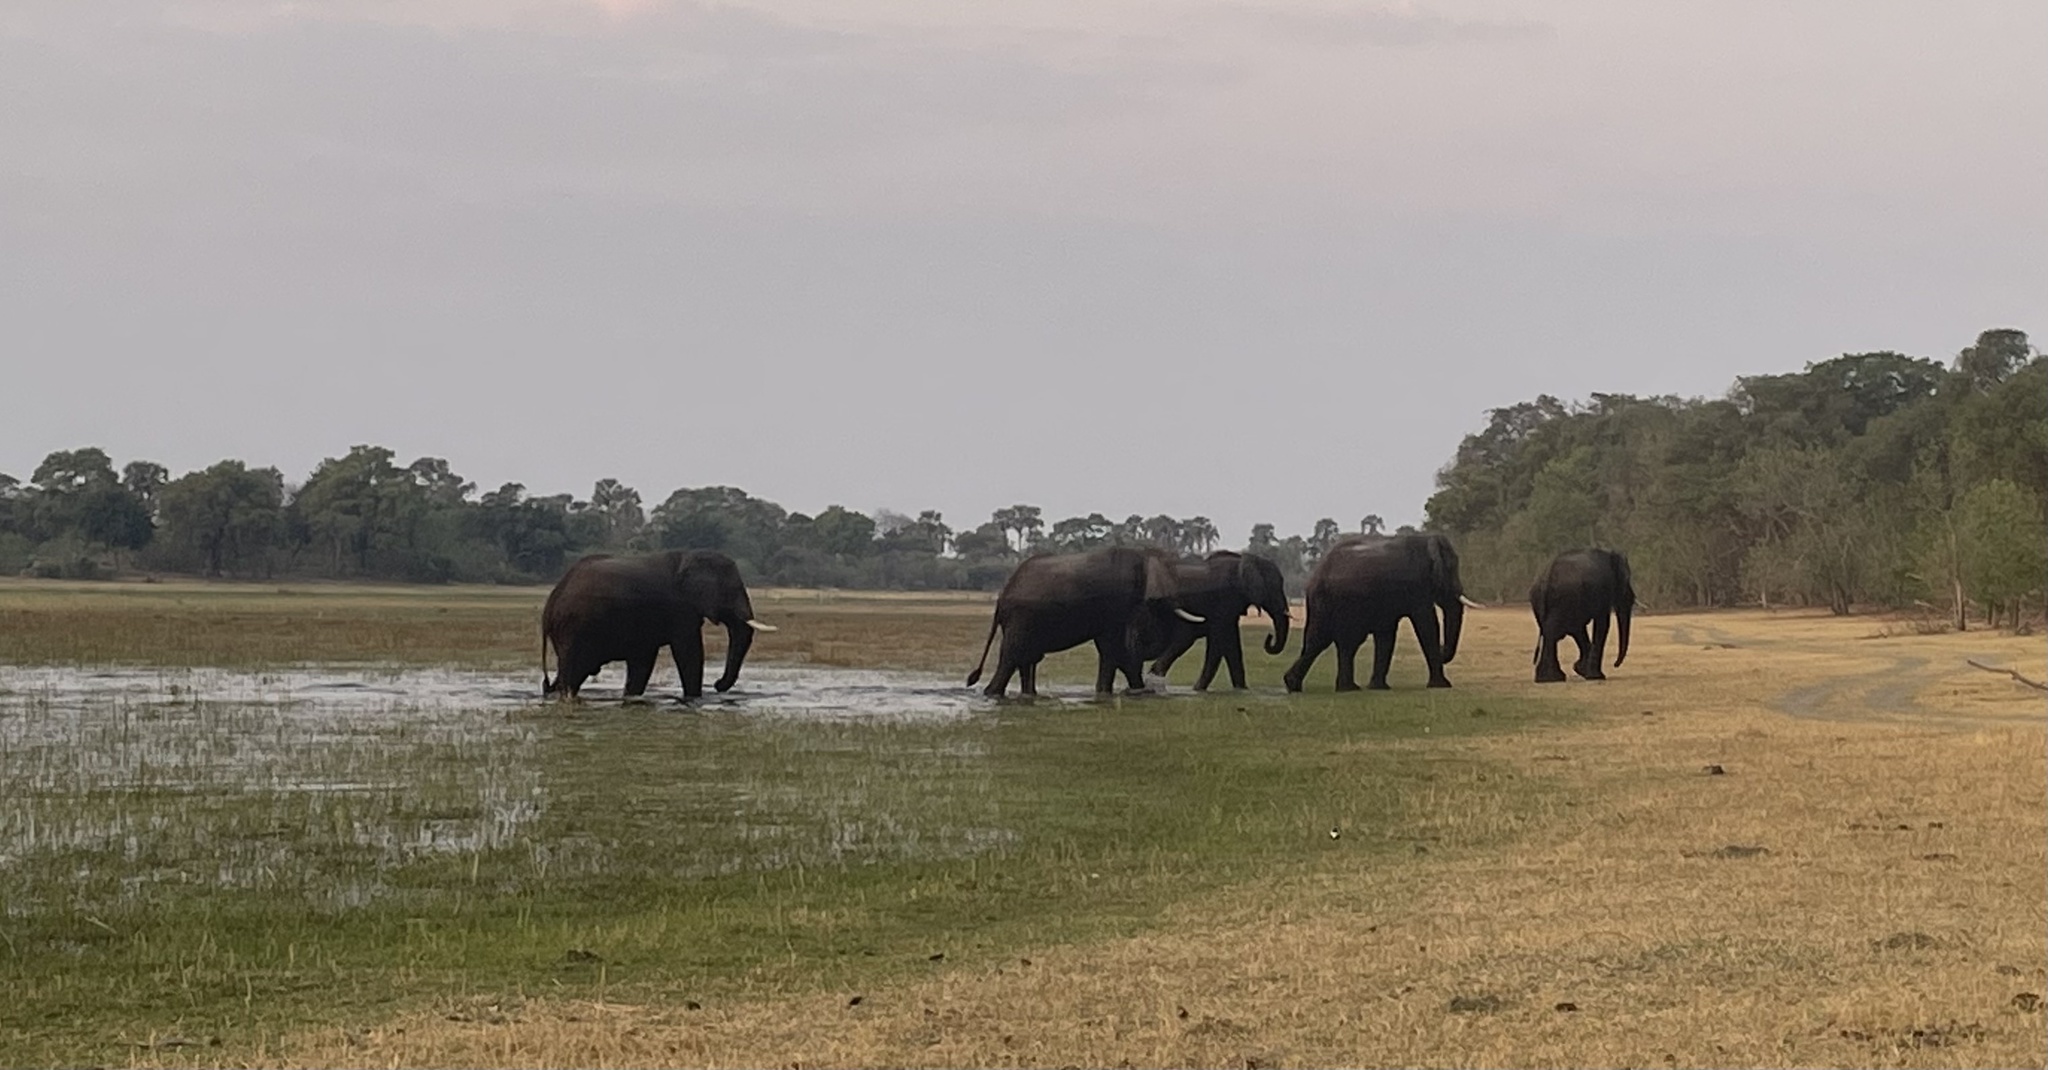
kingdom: Animalia
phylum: Chordata
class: Mammalia
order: Proboscidea
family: Elephantidae
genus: Loxodonta
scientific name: Loxodonta africana
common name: African elephant
